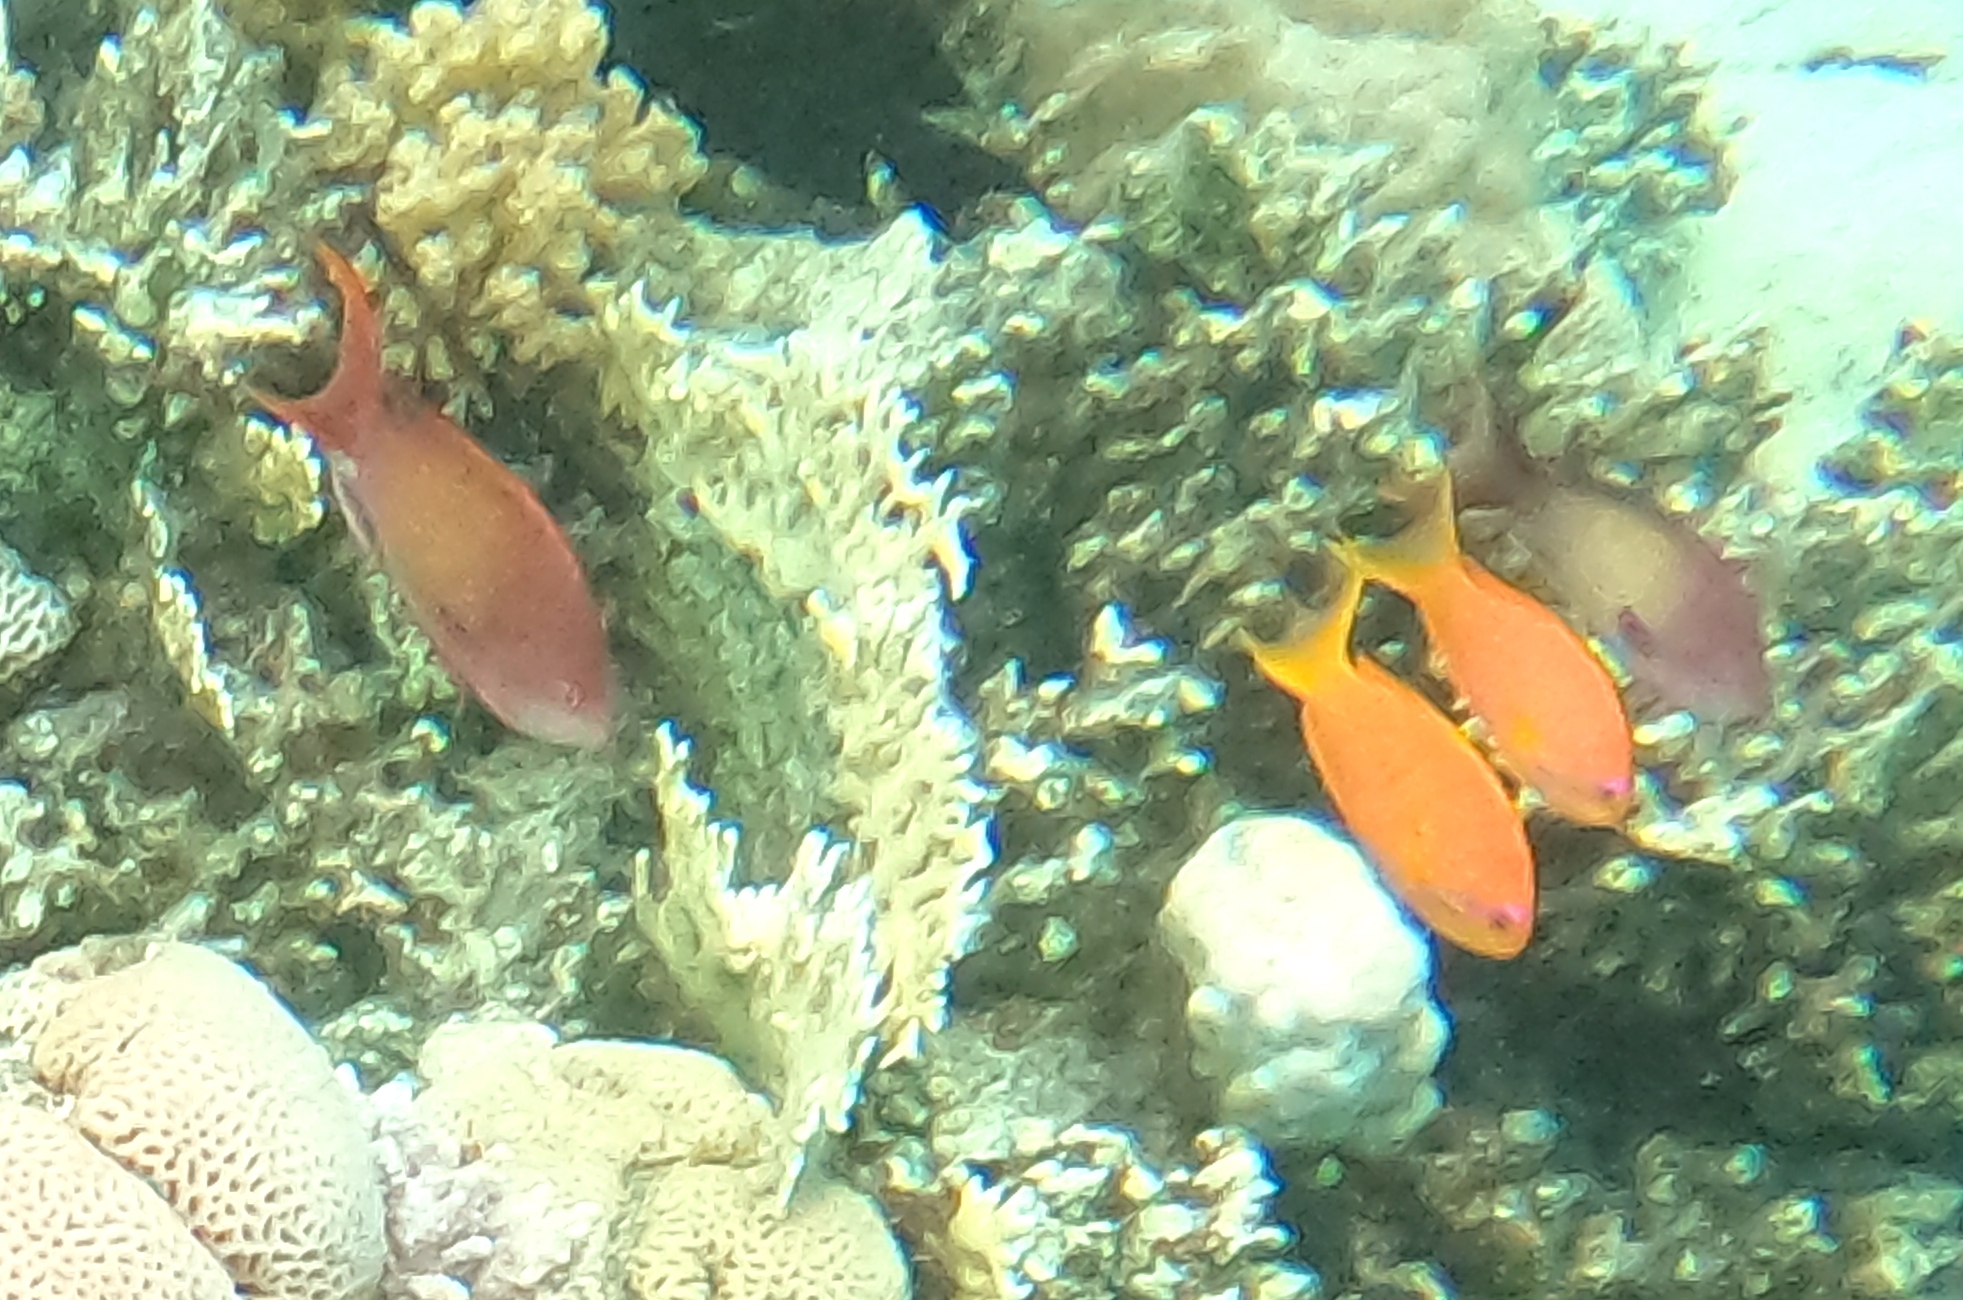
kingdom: Animalia
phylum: Chordata
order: Perciformes
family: Serranidae
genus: Pseudanthias
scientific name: Pseudanthias squamipinnis
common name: Scalefin anthias
